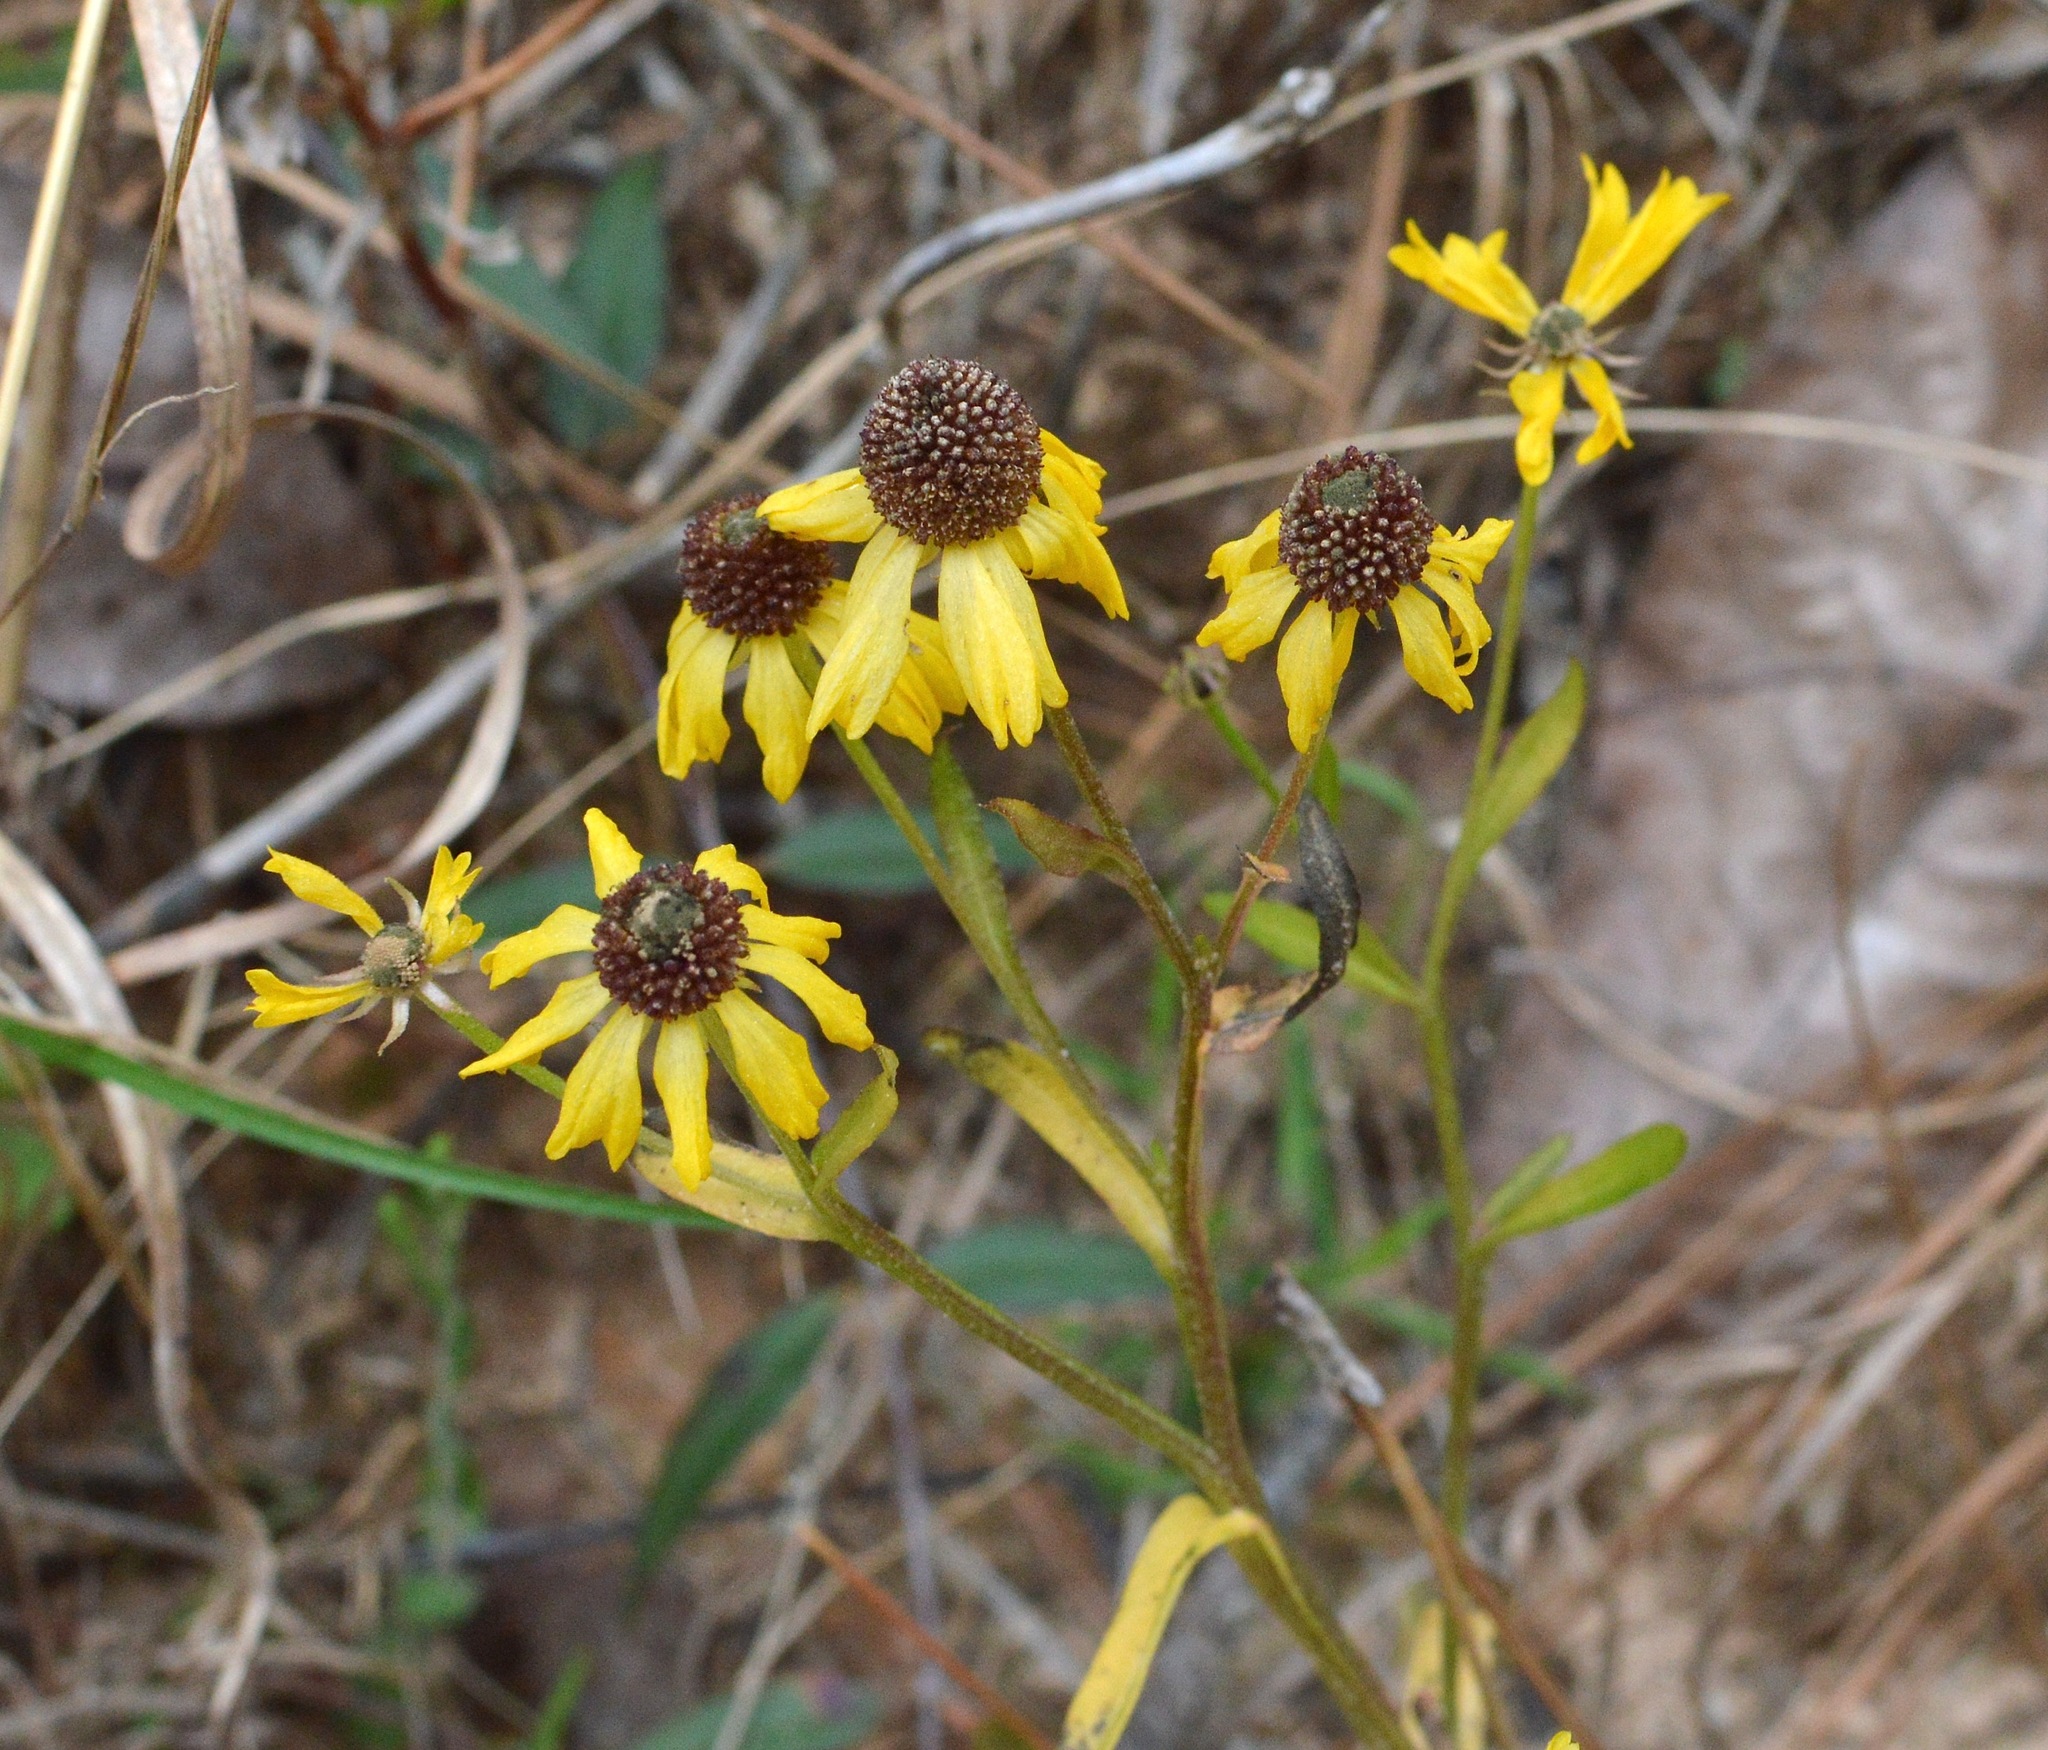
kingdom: Plantae
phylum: Tracheophyta
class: Magnoliopsida
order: Asterales
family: Asteraceae
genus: Helenium
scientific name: Helenium flexuosum
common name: Naked-flowered sneezeweed
